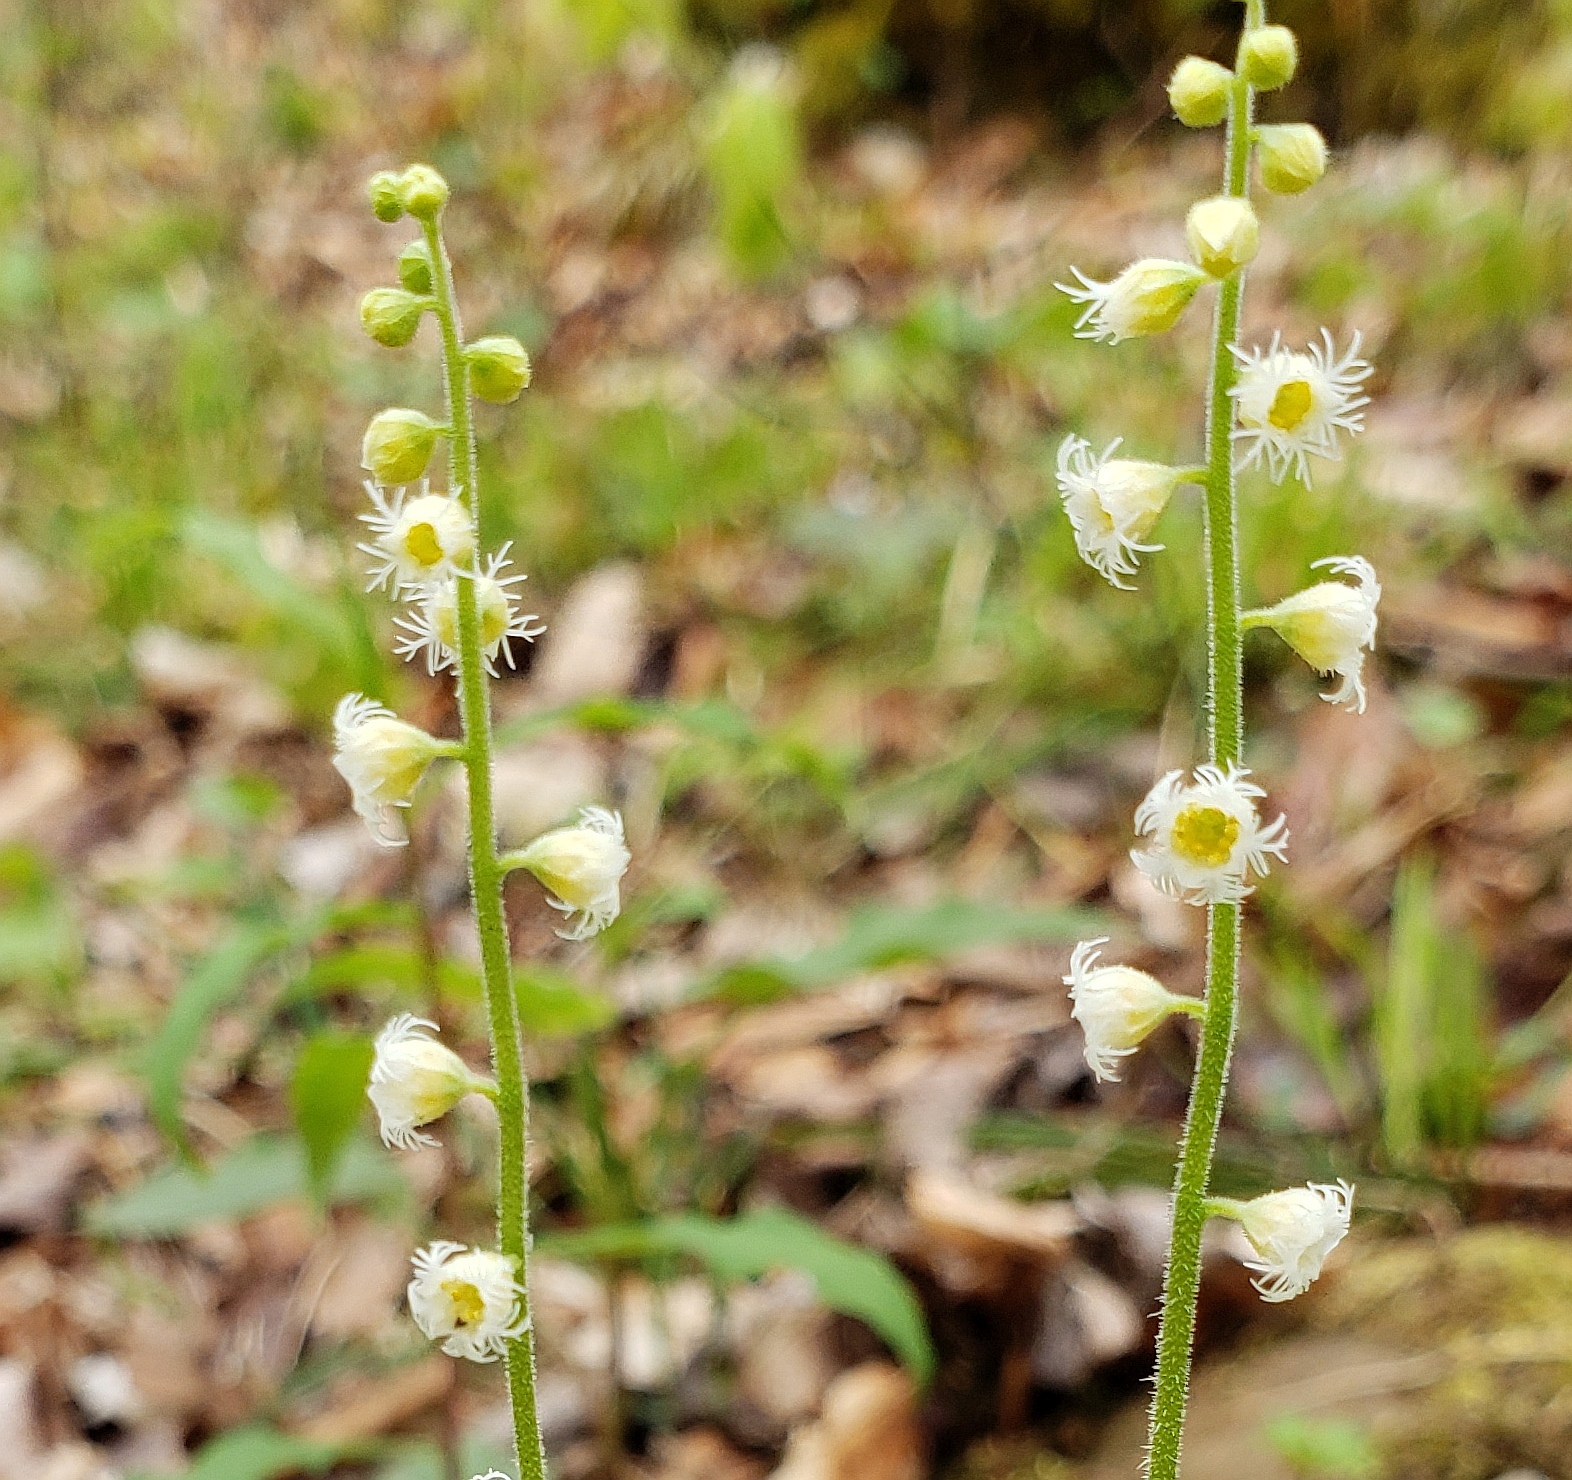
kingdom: Plantae
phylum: Tracheophyta
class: Magnoliopsida
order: Saxifragales
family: Saxifragaceae
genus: Mitella
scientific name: Mitella diphylla
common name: Coolwort
